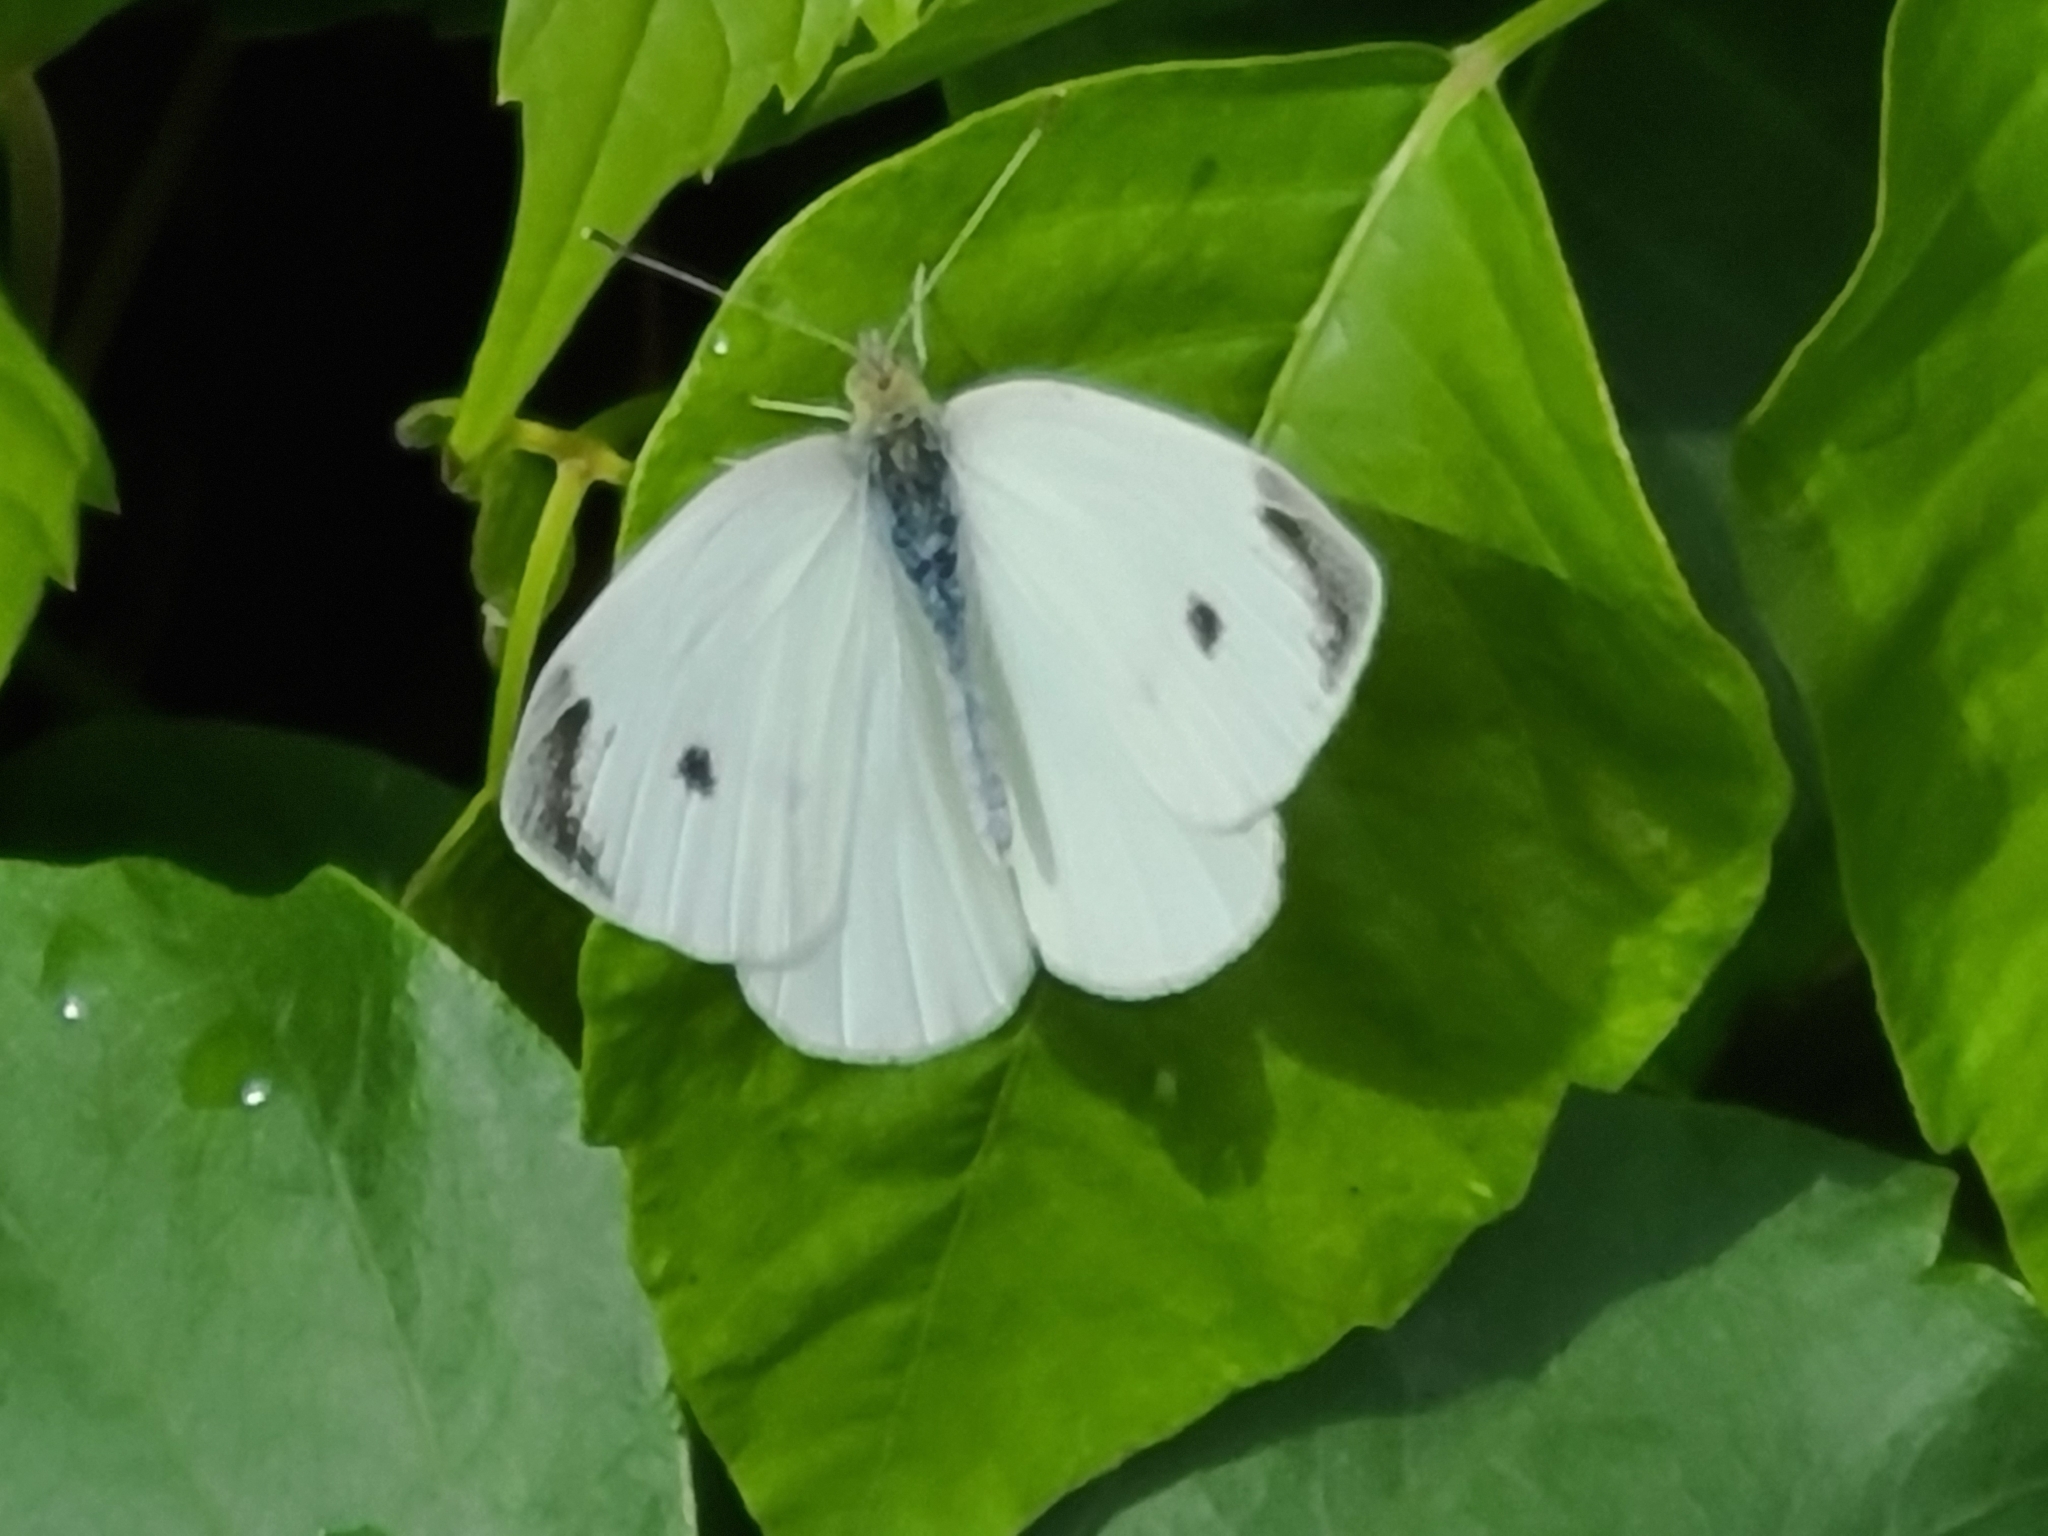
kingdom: Animalia
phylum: Arthropoda
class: Insecta
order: Lepidoptera
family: Pieridae
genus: Pieris
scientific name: Pieris rapae
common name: Small white
